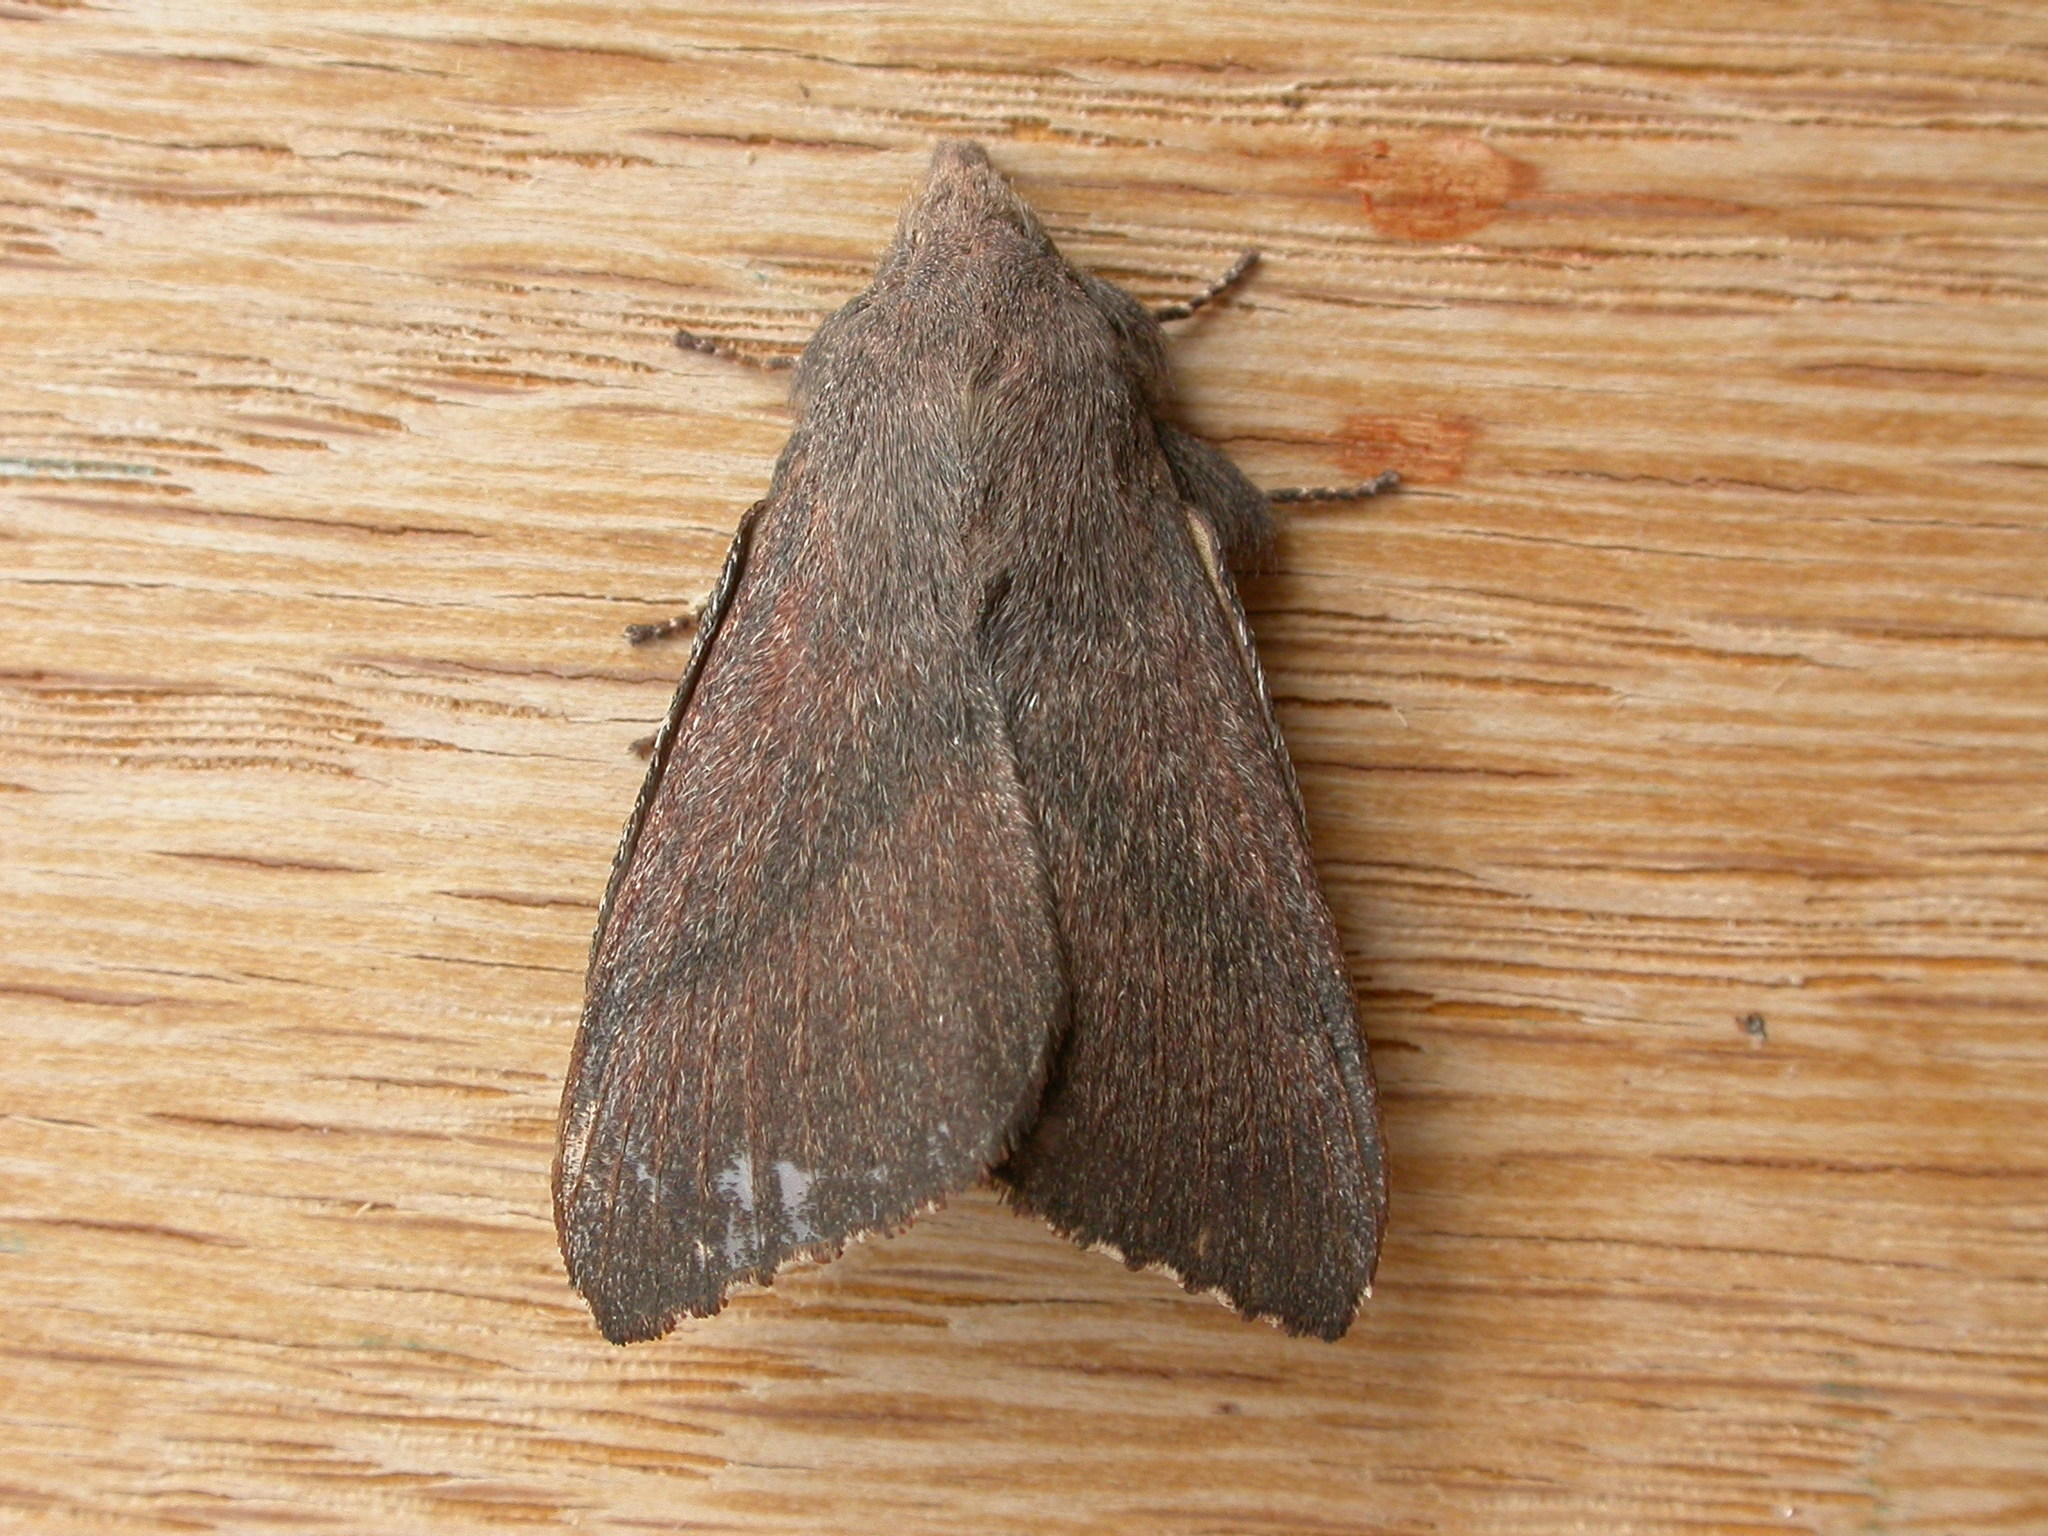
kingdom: Animalia
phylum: Arthropoda
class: Insecta
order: Lepidoptera
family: Lasiocampidae
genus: Pararguda
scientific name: Pararguda rufescens
